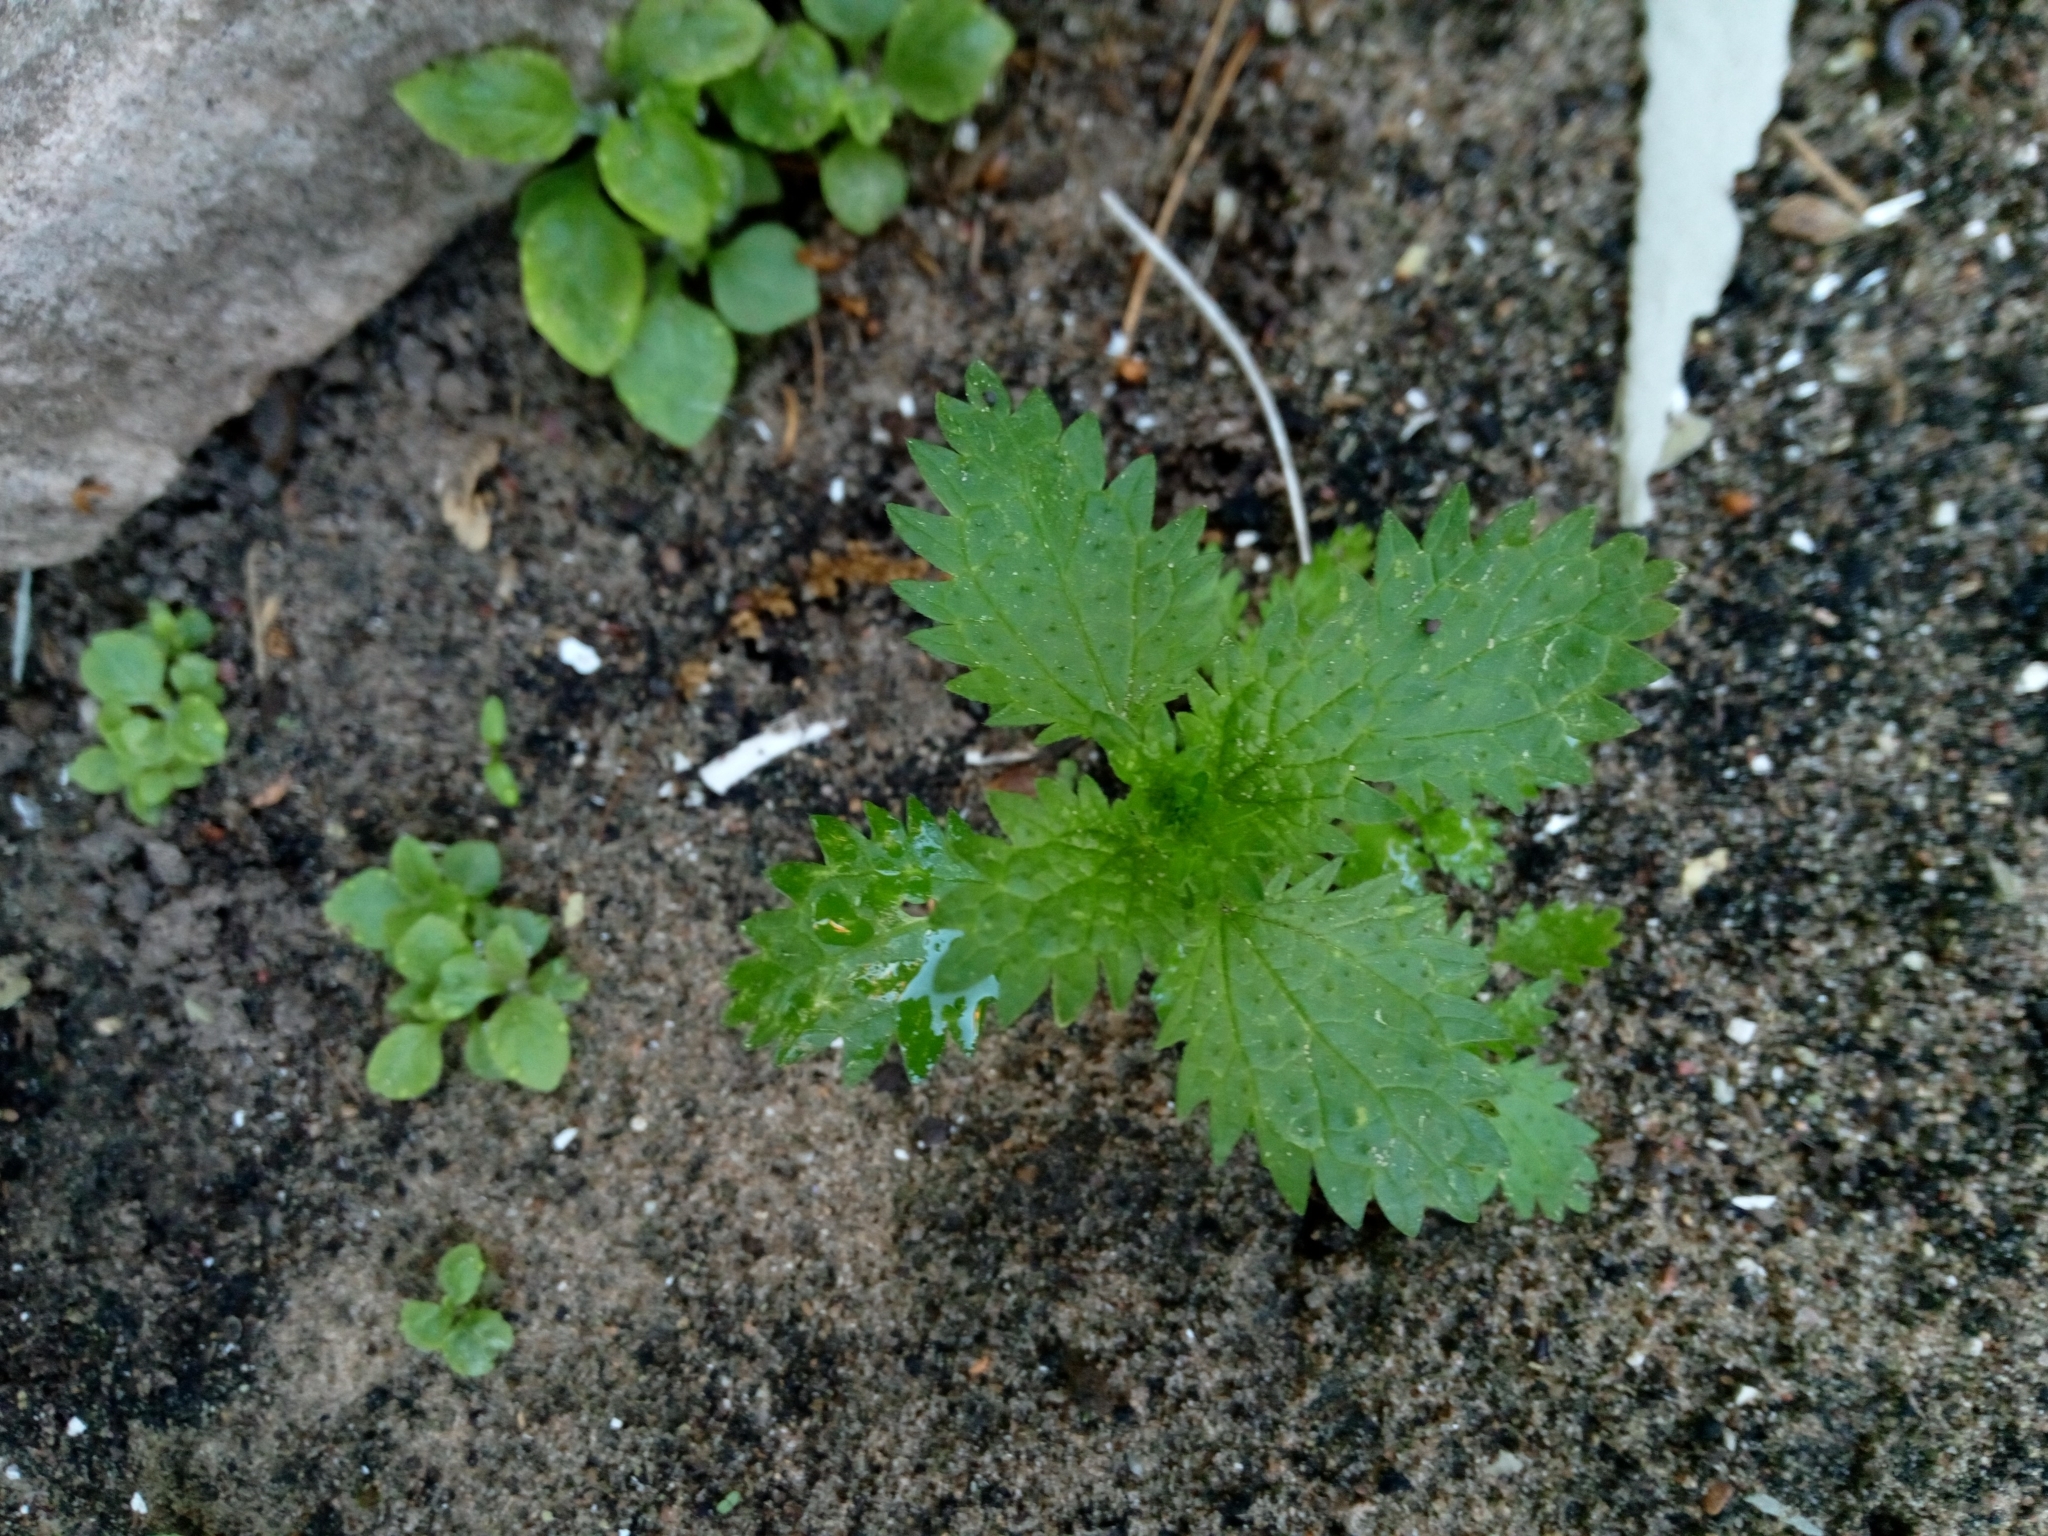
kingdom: Plantae
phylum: Tracheophyta
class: Magnoliopsida
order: Rosales
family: Urticaceae
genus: Urtica
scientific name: Urtica urens
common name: Dwarf nettle
